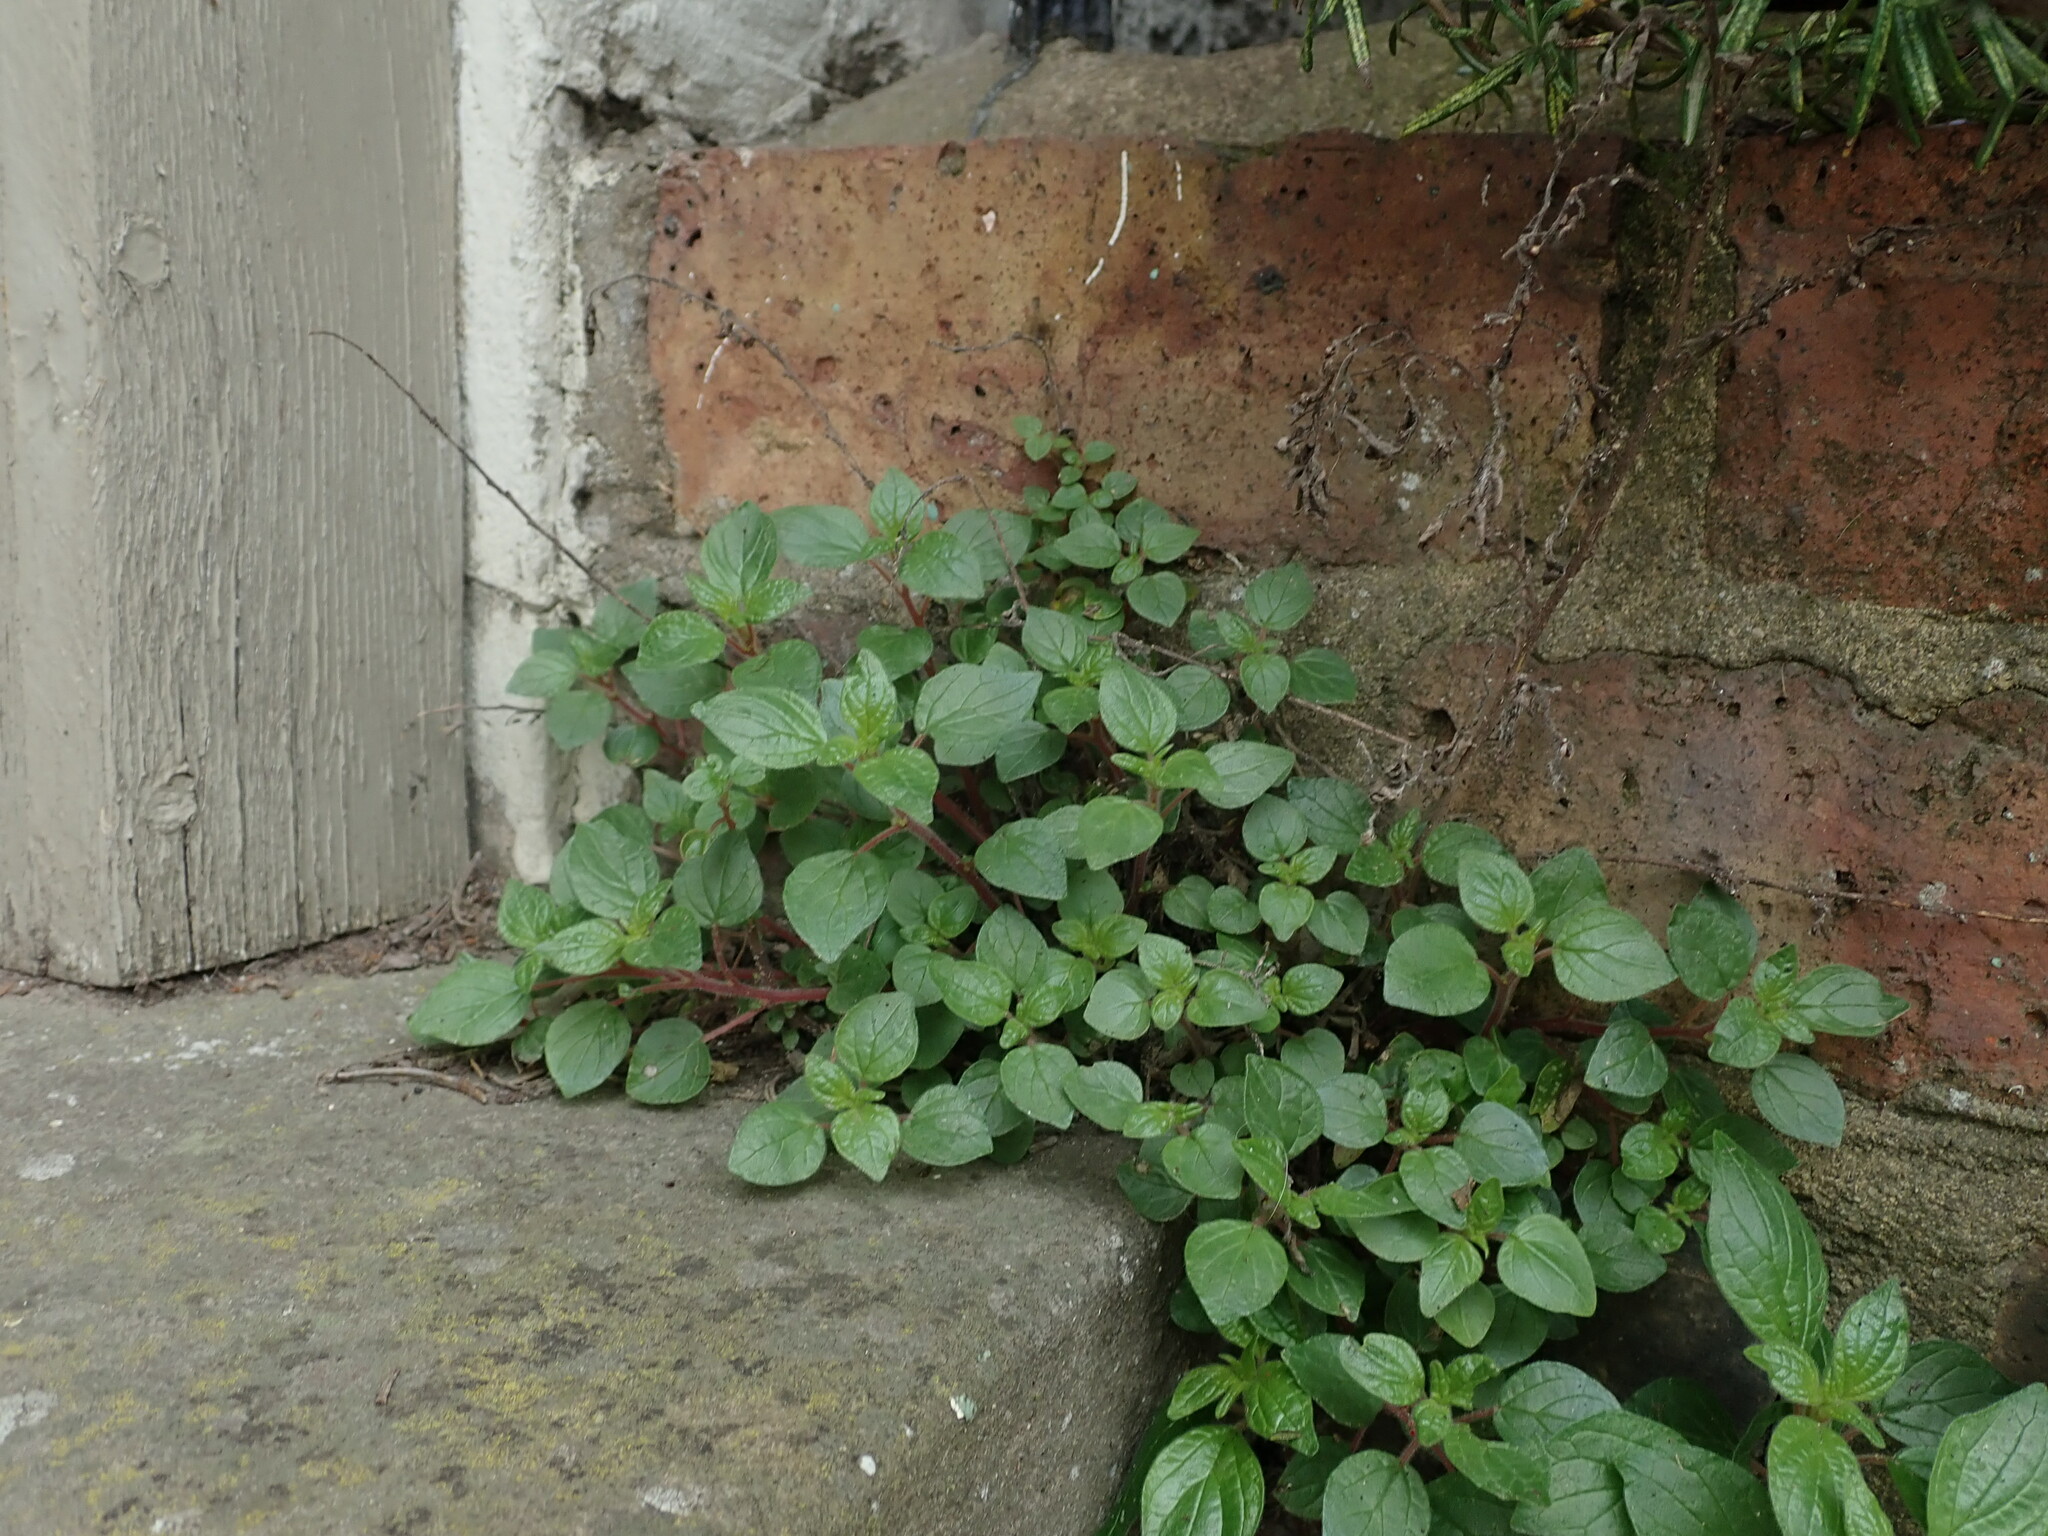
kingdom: Plantae
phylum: Tracheophyta
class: Magnoliopsida
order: Rosales
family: Urticaceae
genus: Parietaria
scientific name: Parietaria judaica
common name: Pellitory-of-the-wall
